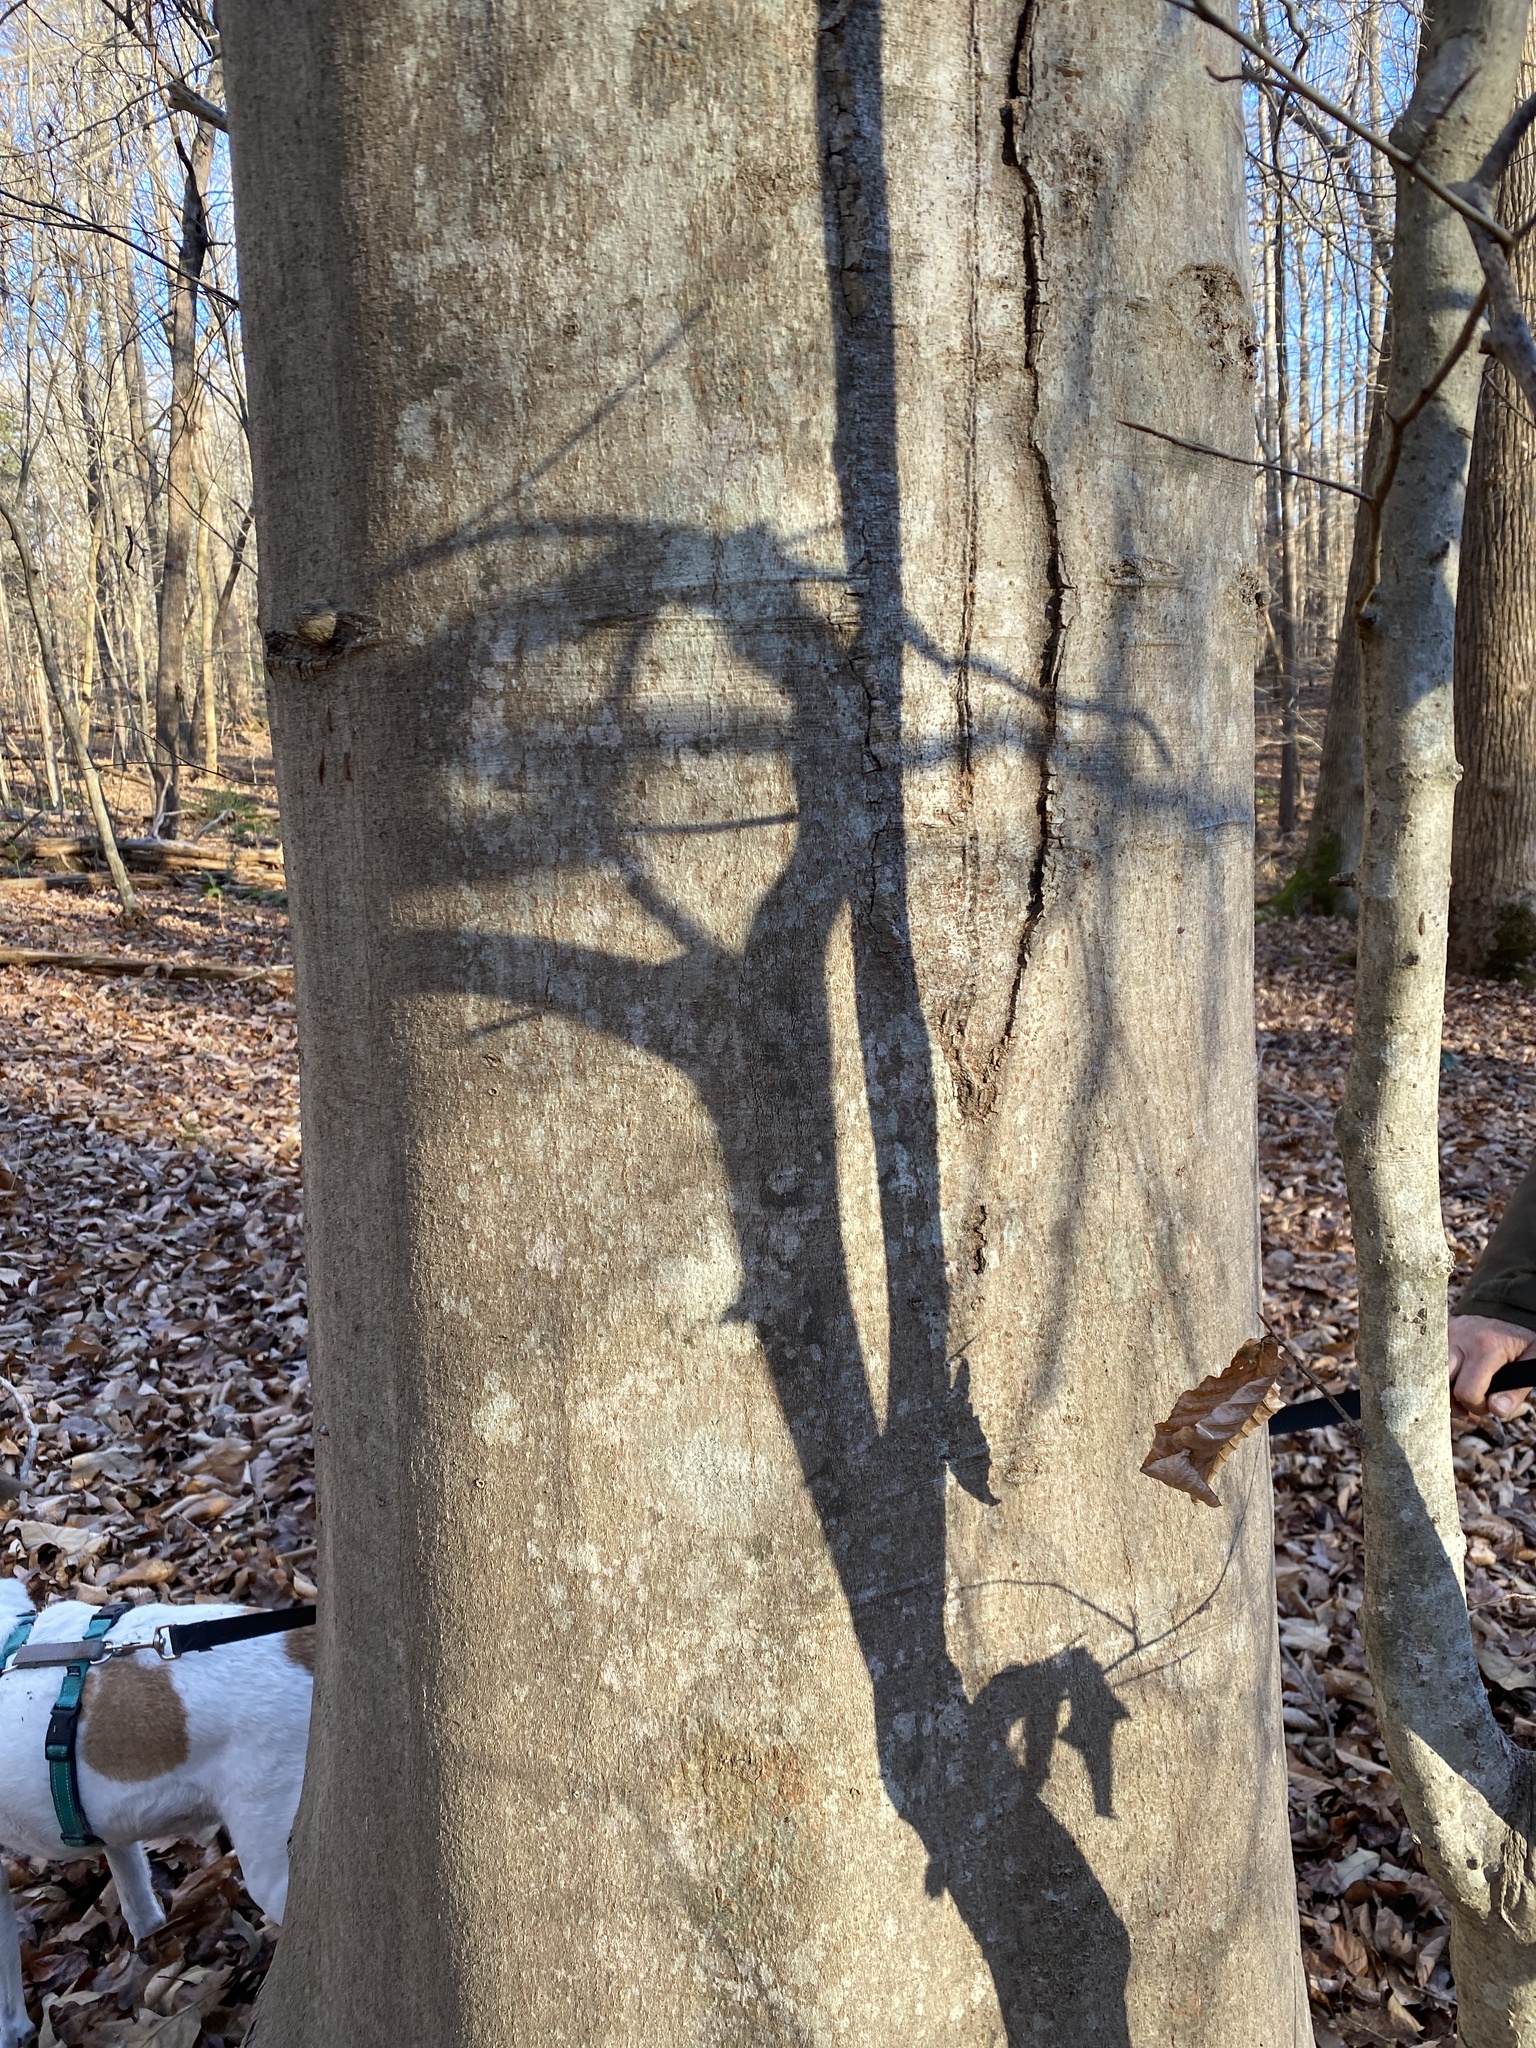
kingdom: Plantae
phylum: Tracheophyta
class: Magnoliopsida
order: Fagales
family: Fagaceae
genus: Fagus
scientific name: Fagus grandifolia
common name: American beech
